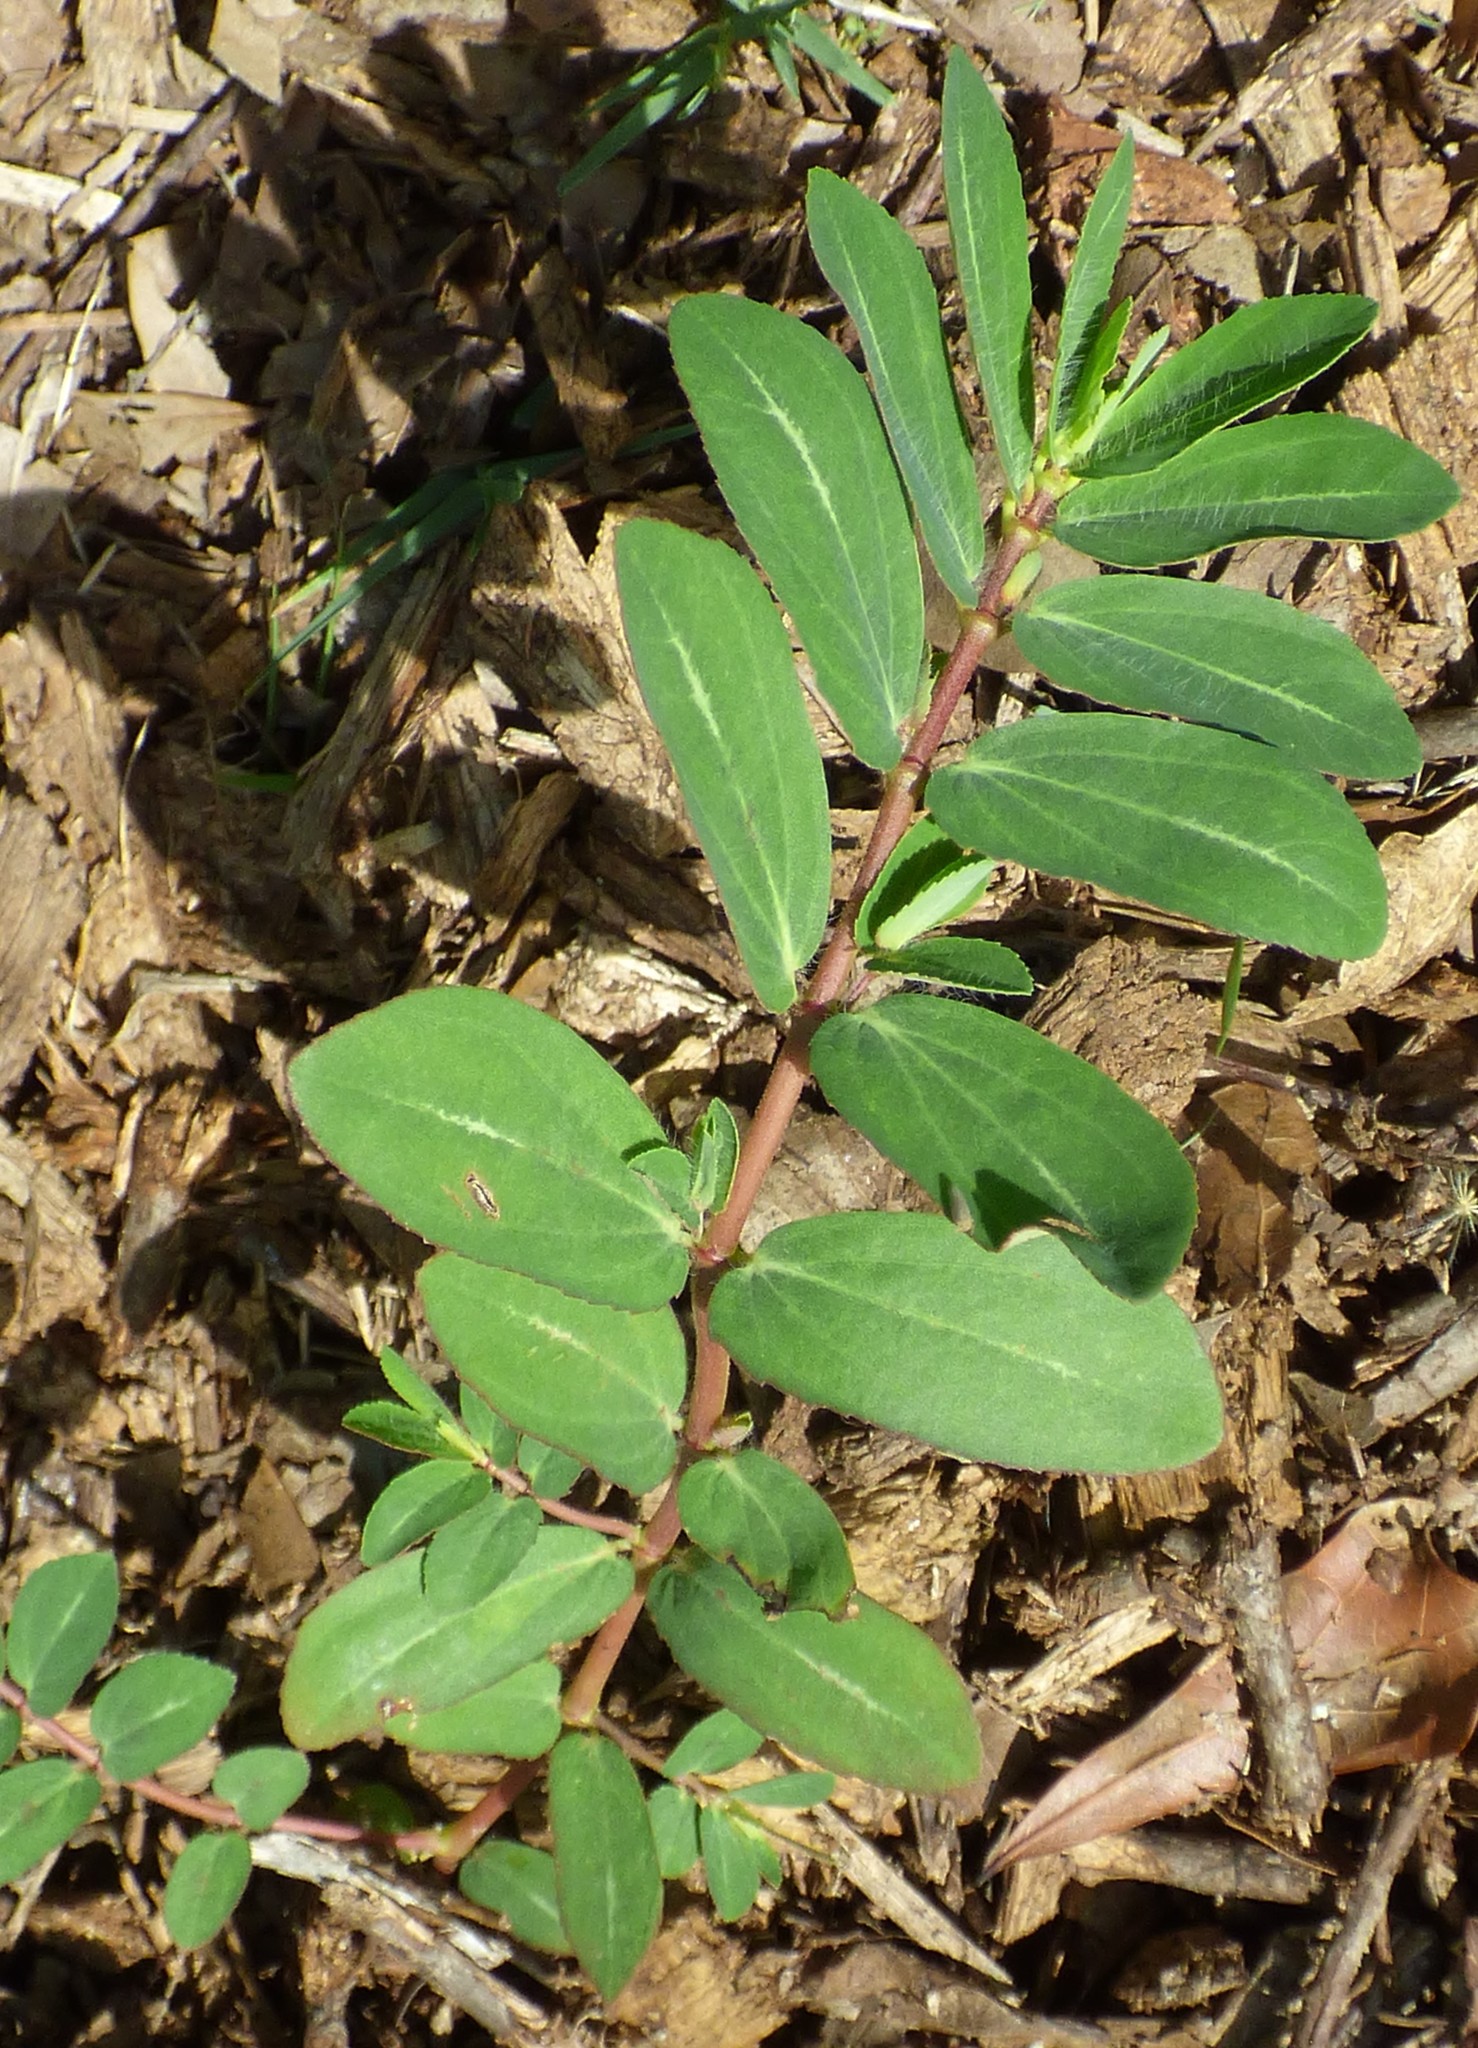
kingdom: Plantae
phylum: Tracheophyta
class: Magnoliopsida
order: Malpighiales
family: Euphorbiaceae
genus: Euphorbia
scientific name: Euphorbia nutans
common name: Eyebane
